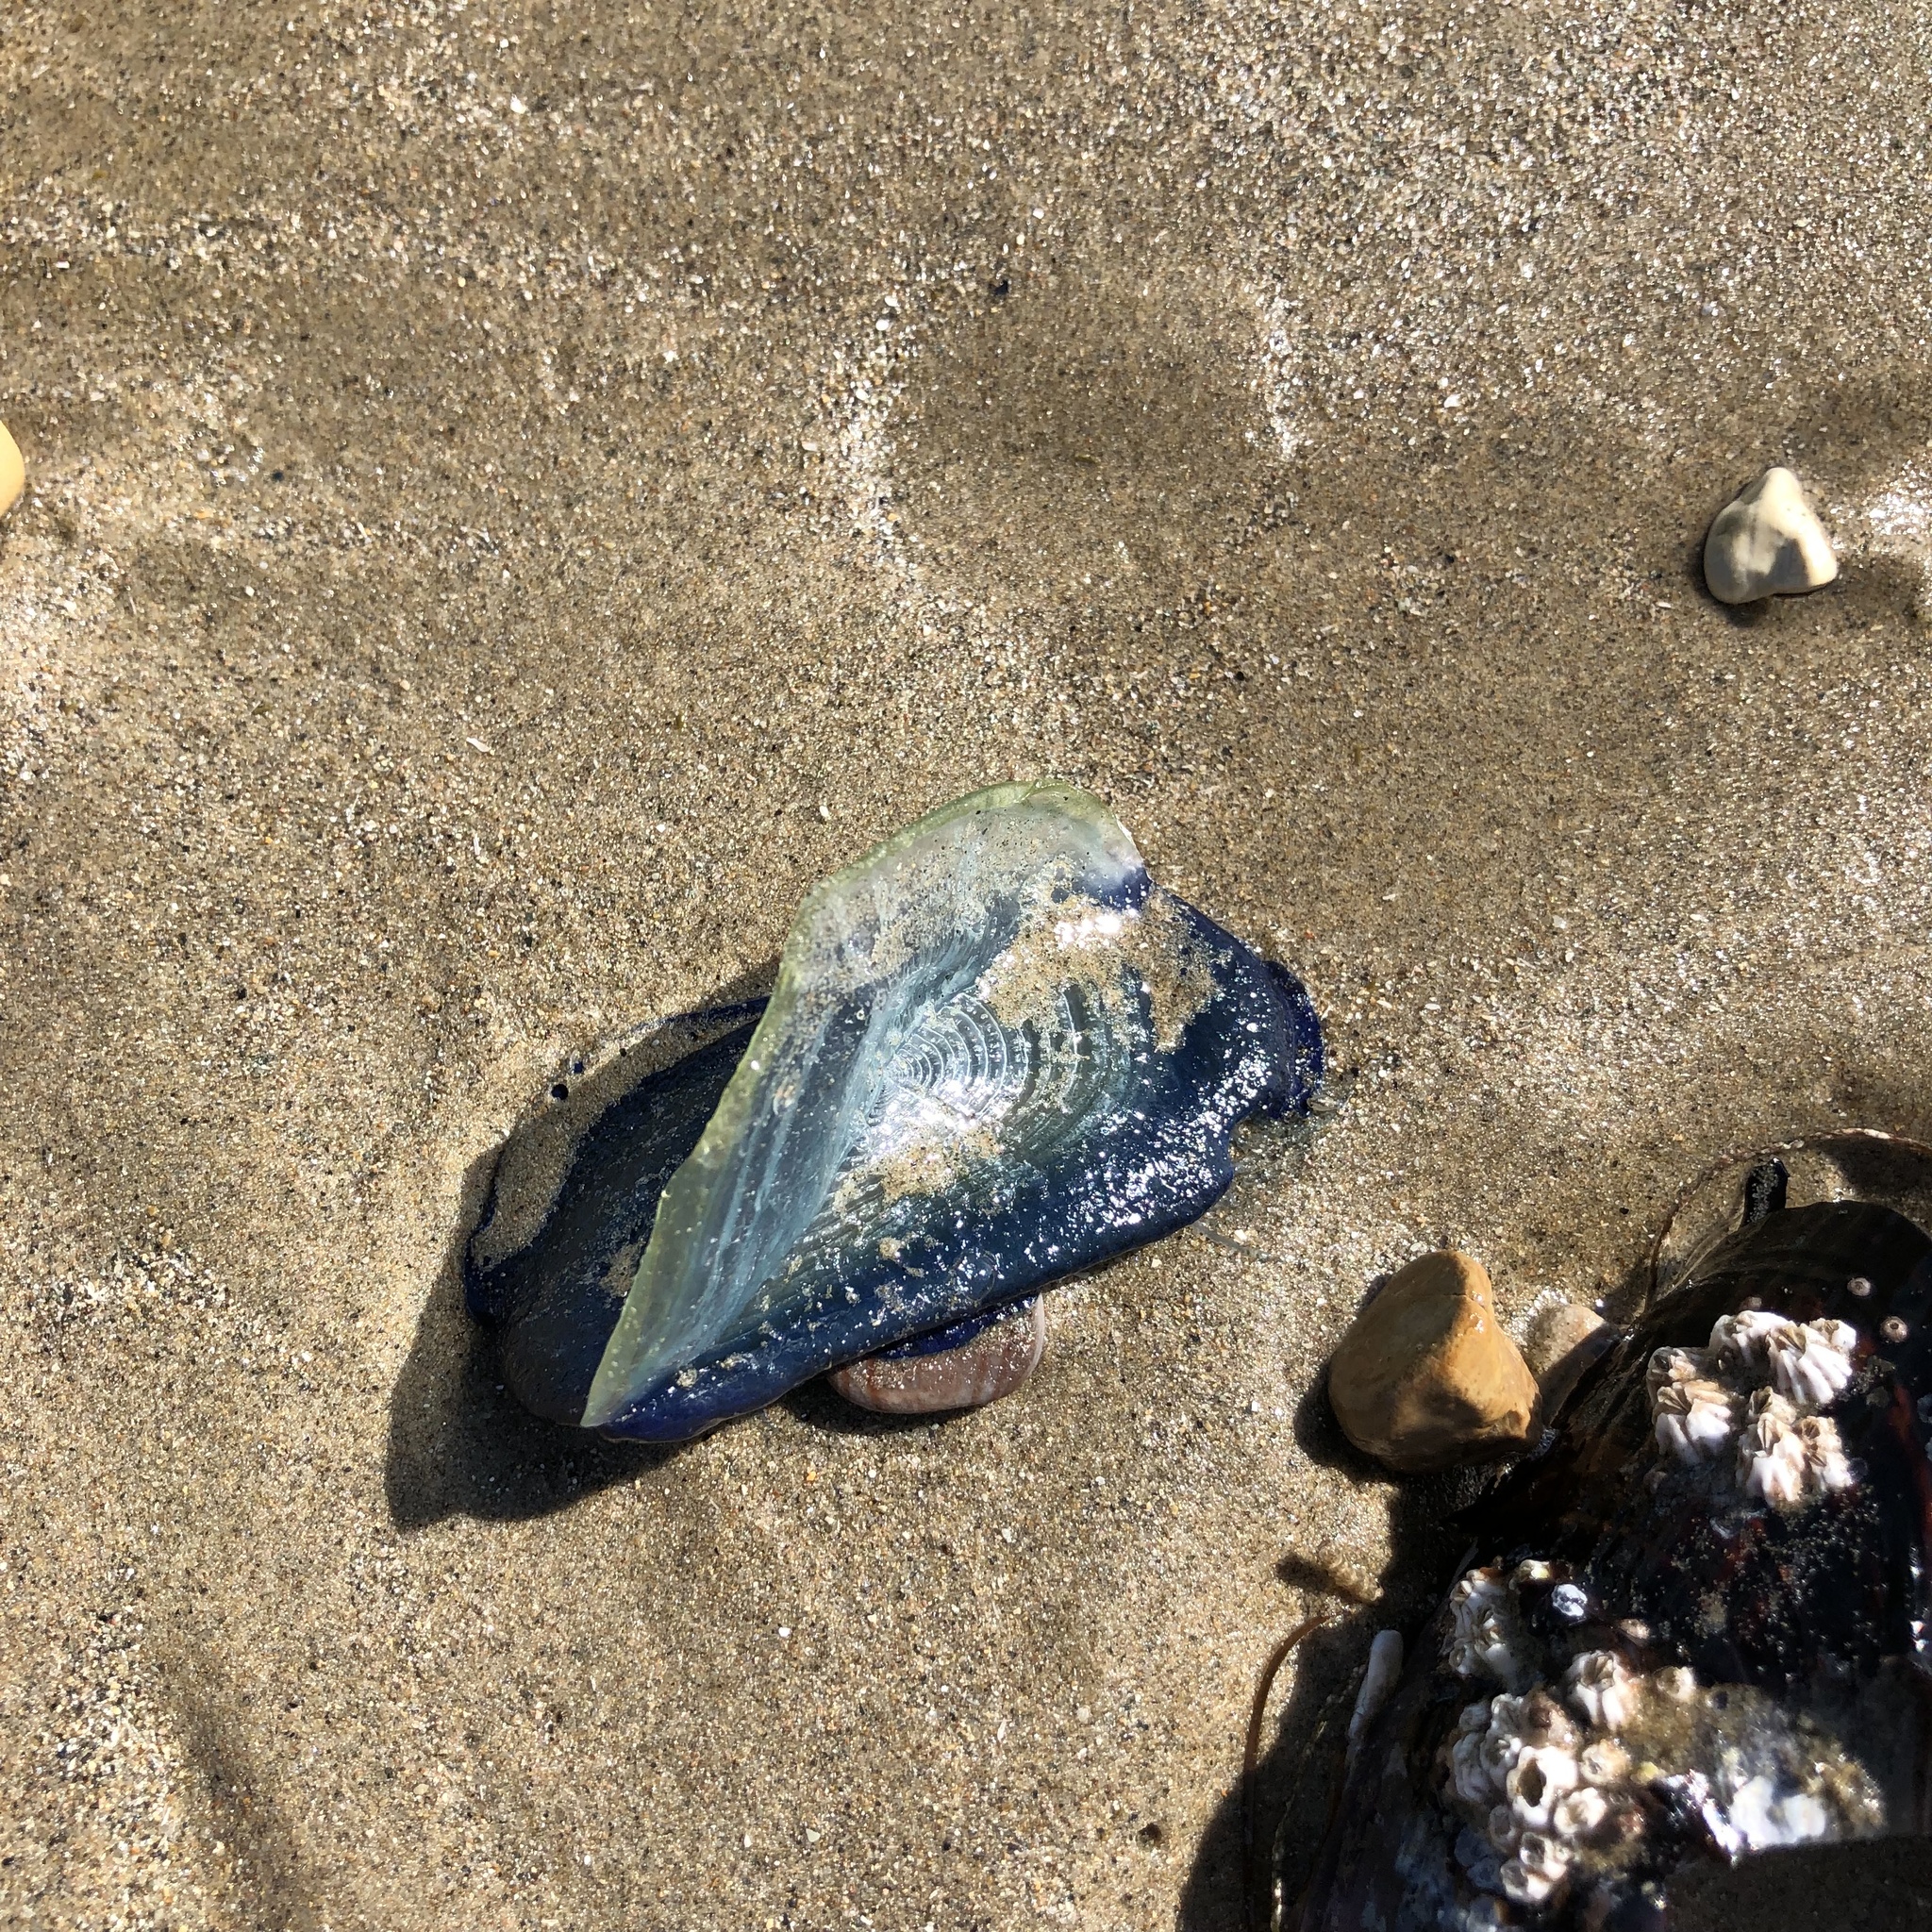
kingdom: Animalia
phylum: Cnidaria
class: Hydrozoa
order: Anthoathecata
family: Porpitidae
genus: Velella
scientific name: Velella velella
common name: By-the-wind-sailor
